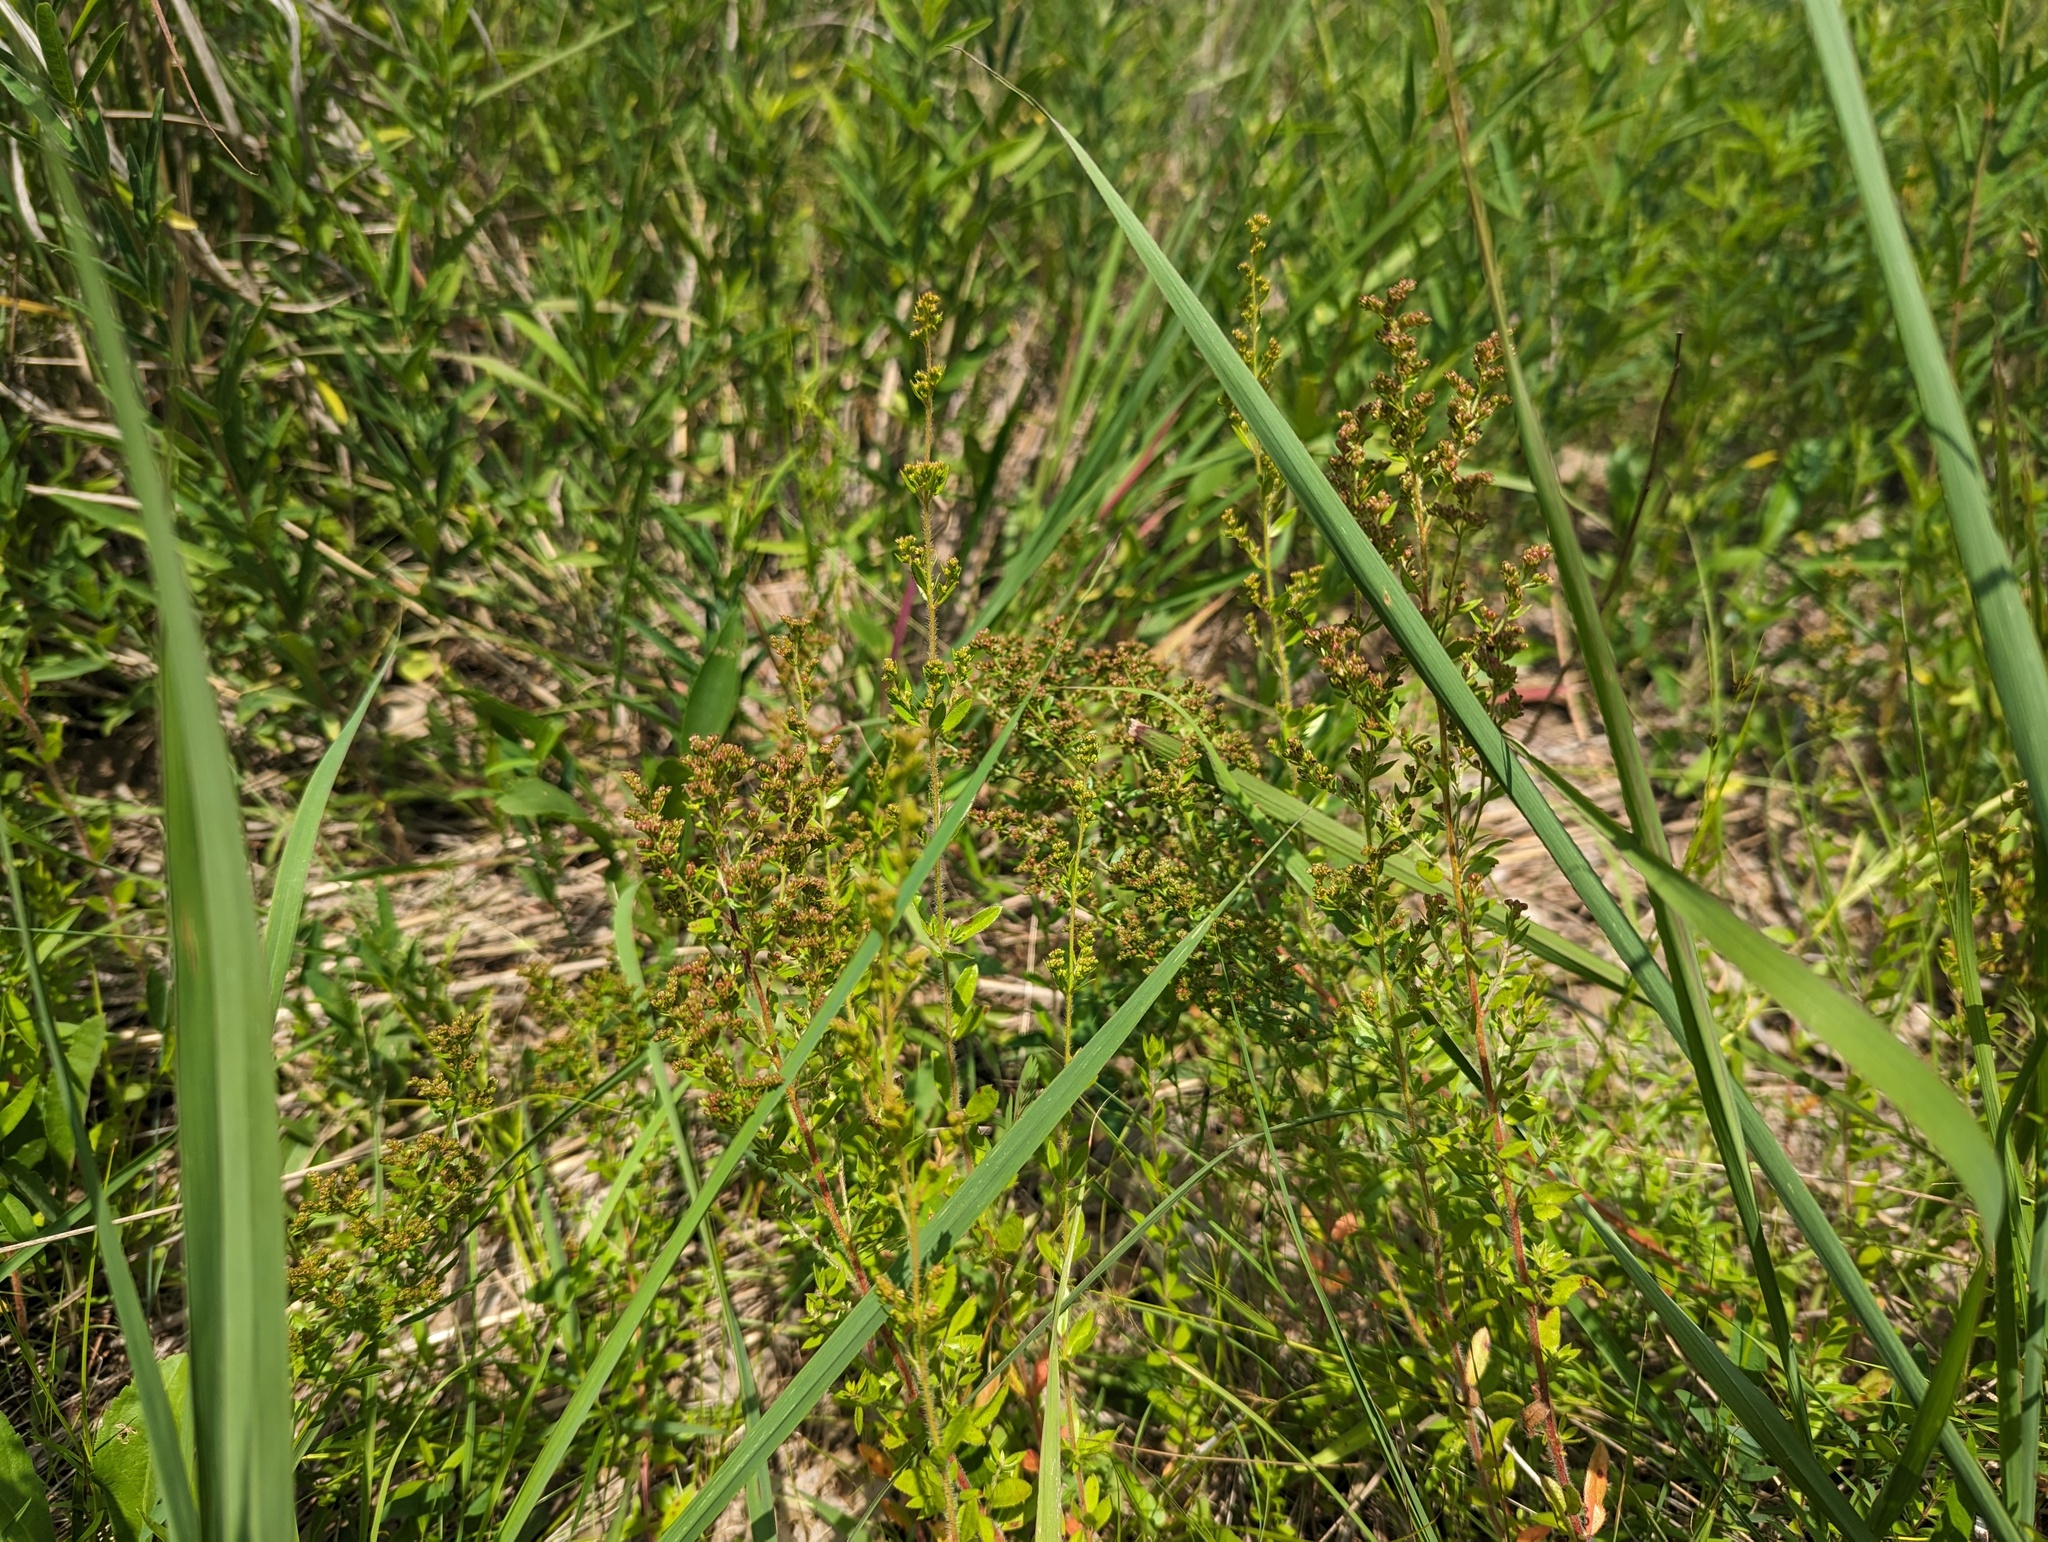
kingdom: Plantae
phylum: Tracheophyta
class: Magnoliopsida
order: Malvales
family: Cistaceae
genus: Lechea
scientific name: Lechea mucronata
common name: Hairy pinweed
